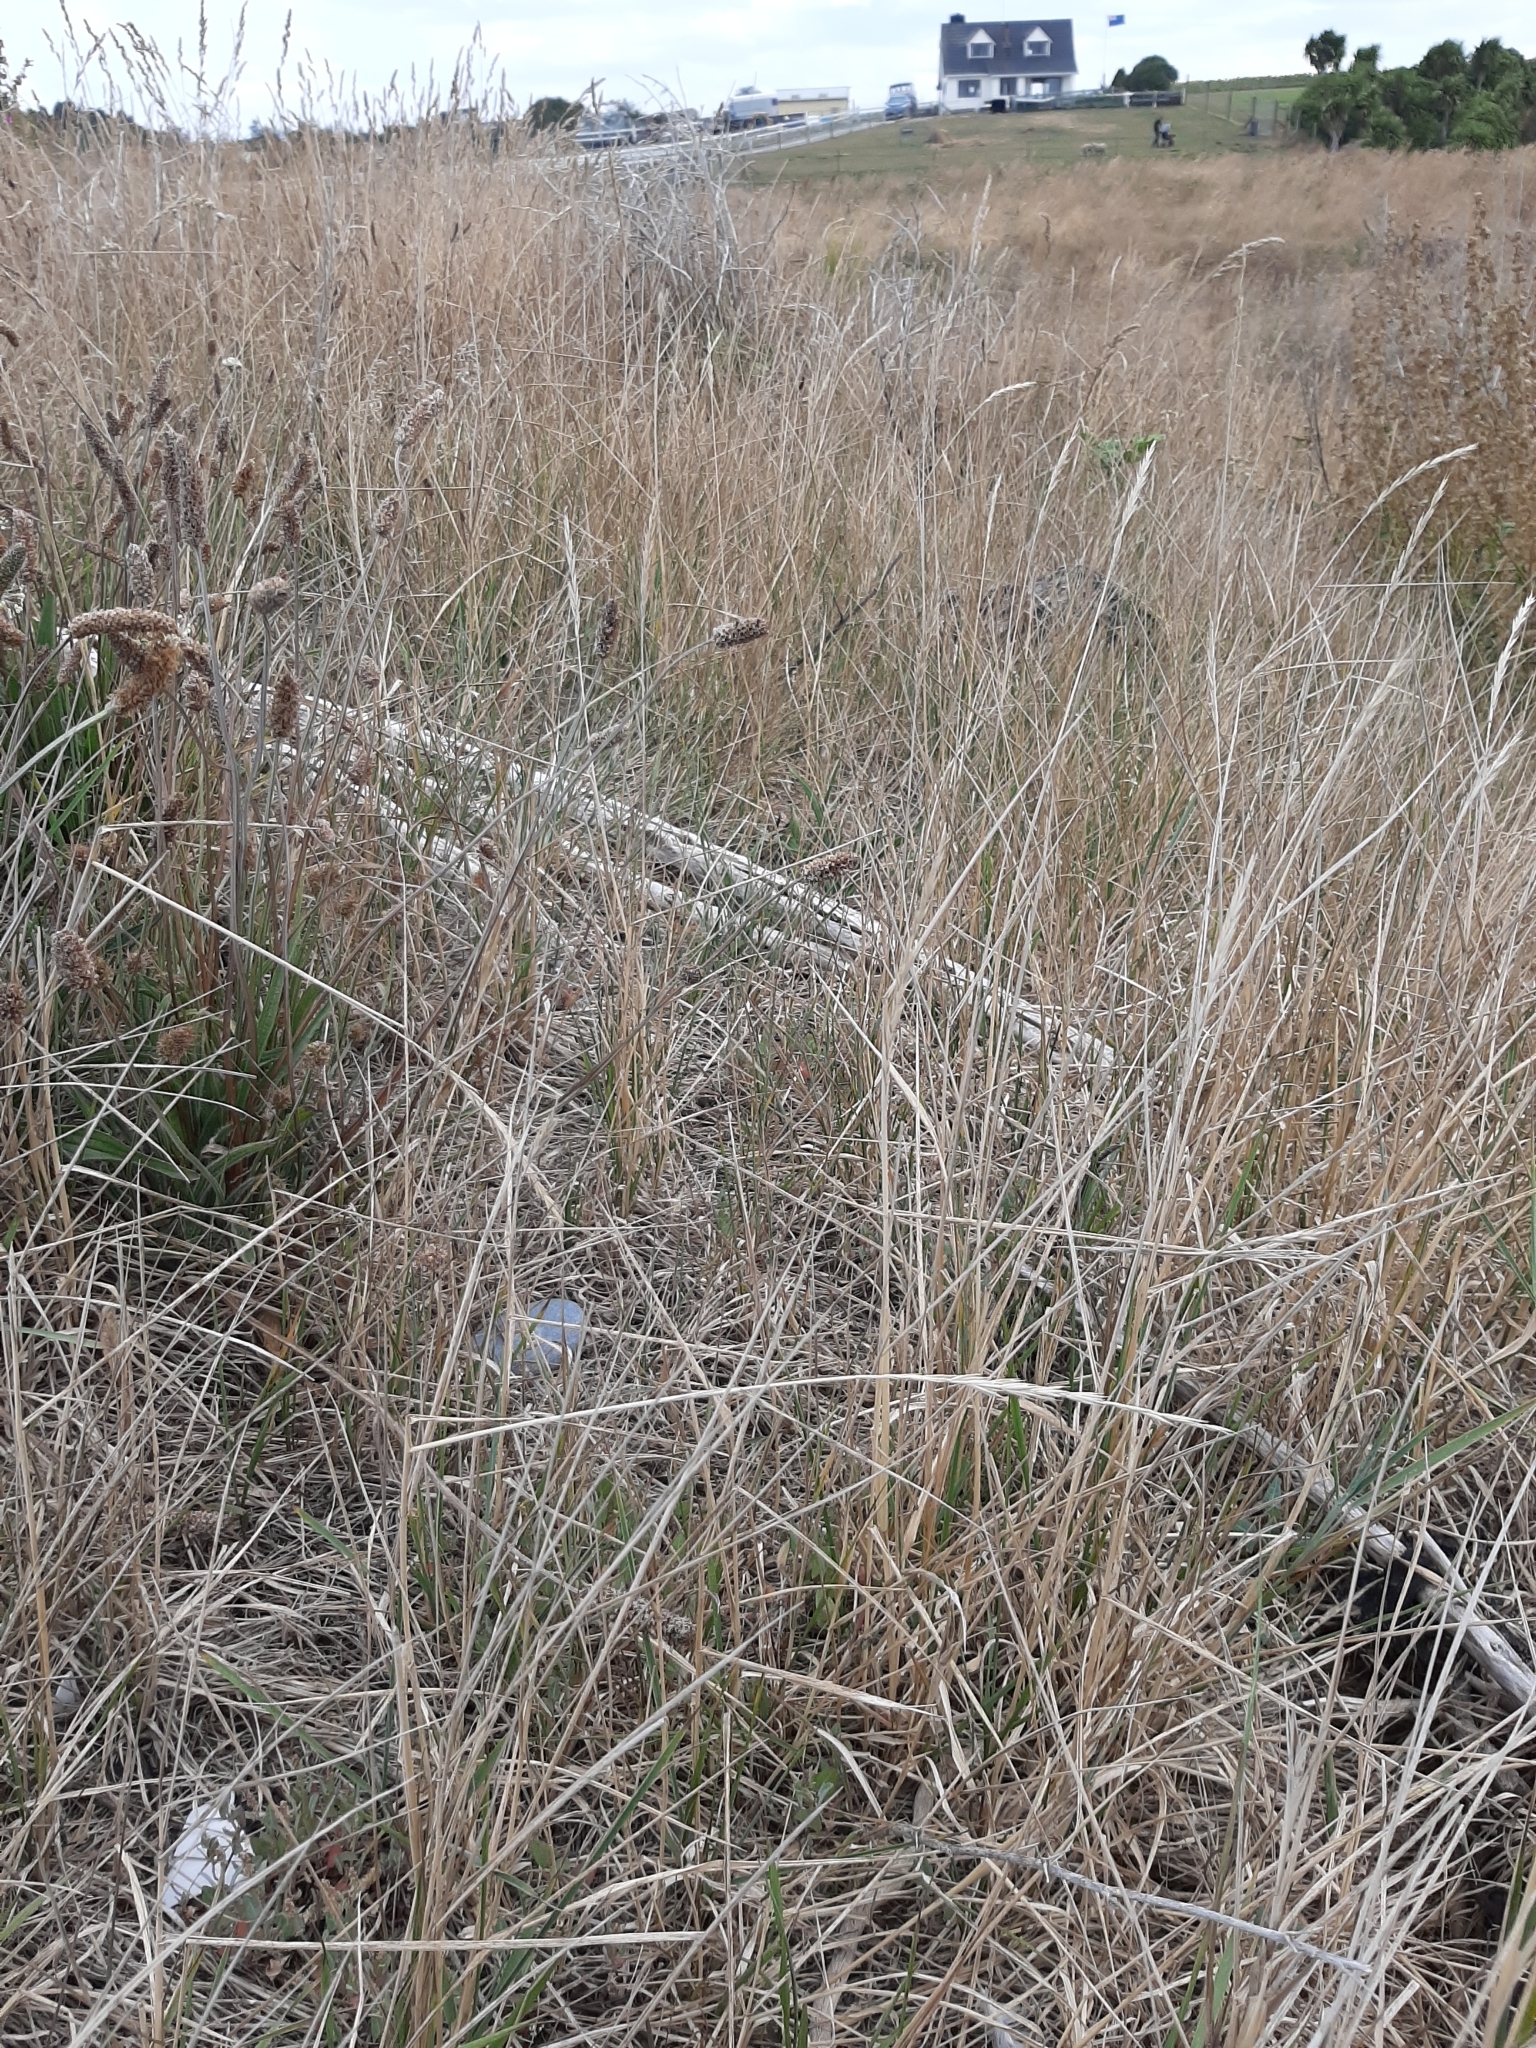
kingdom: Plantae
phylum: Tracheophyta
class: Liliopsida
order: Poales
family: Poaceae
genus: Elymus
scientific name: Elymus repens
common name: Quackgrass
